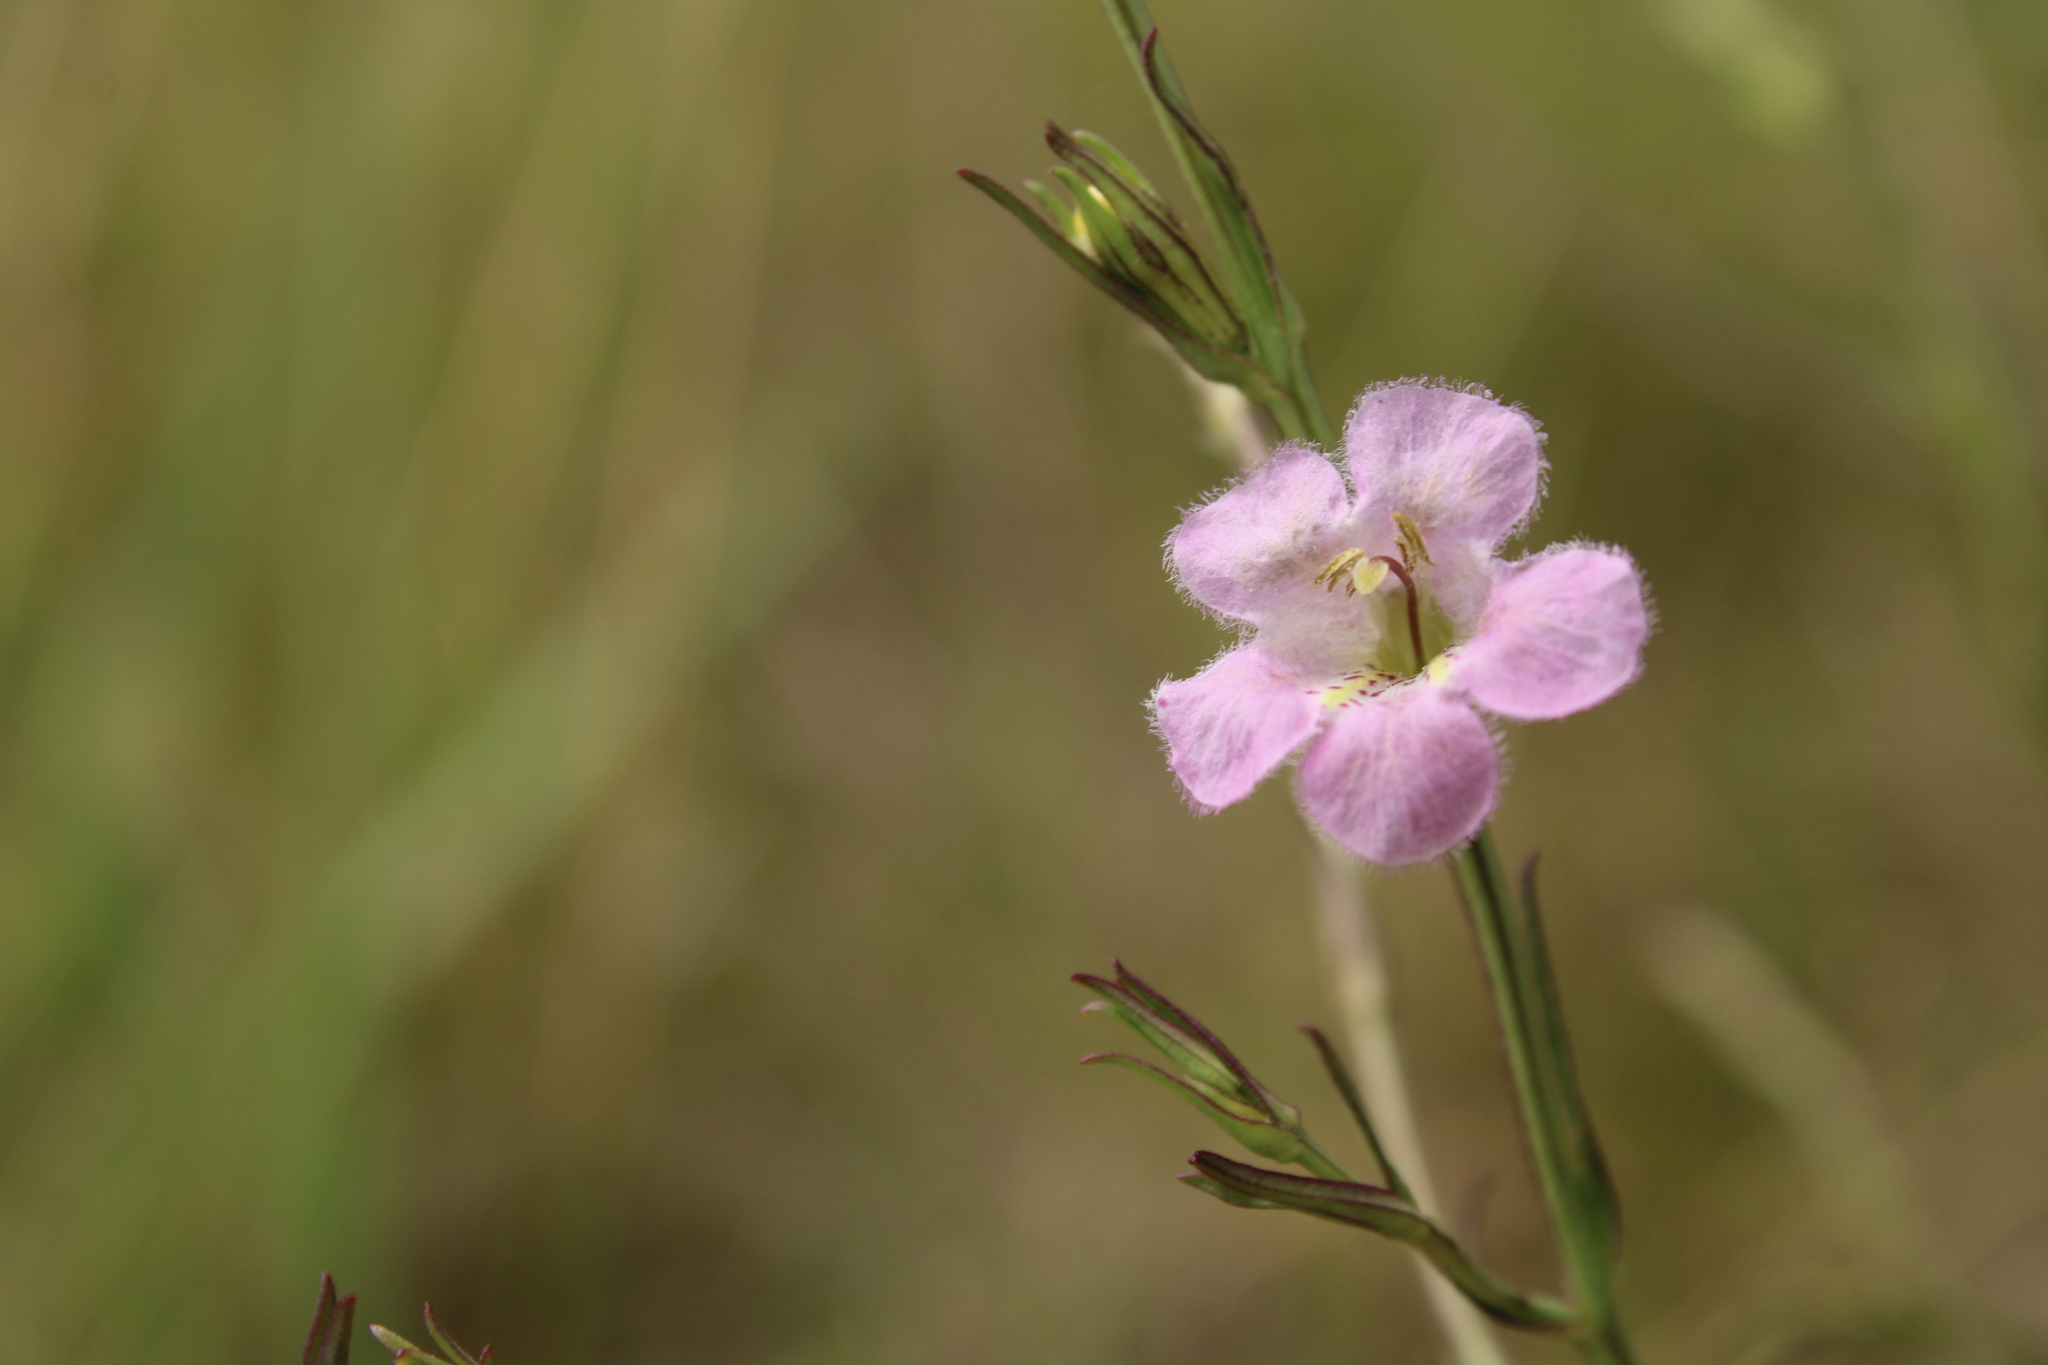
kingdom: Plantae
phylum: Tracheophyta
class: Magnoliopsida
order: Lamiales
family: Orobanchaceae
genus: Agalinis
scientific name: Agalinis communis
